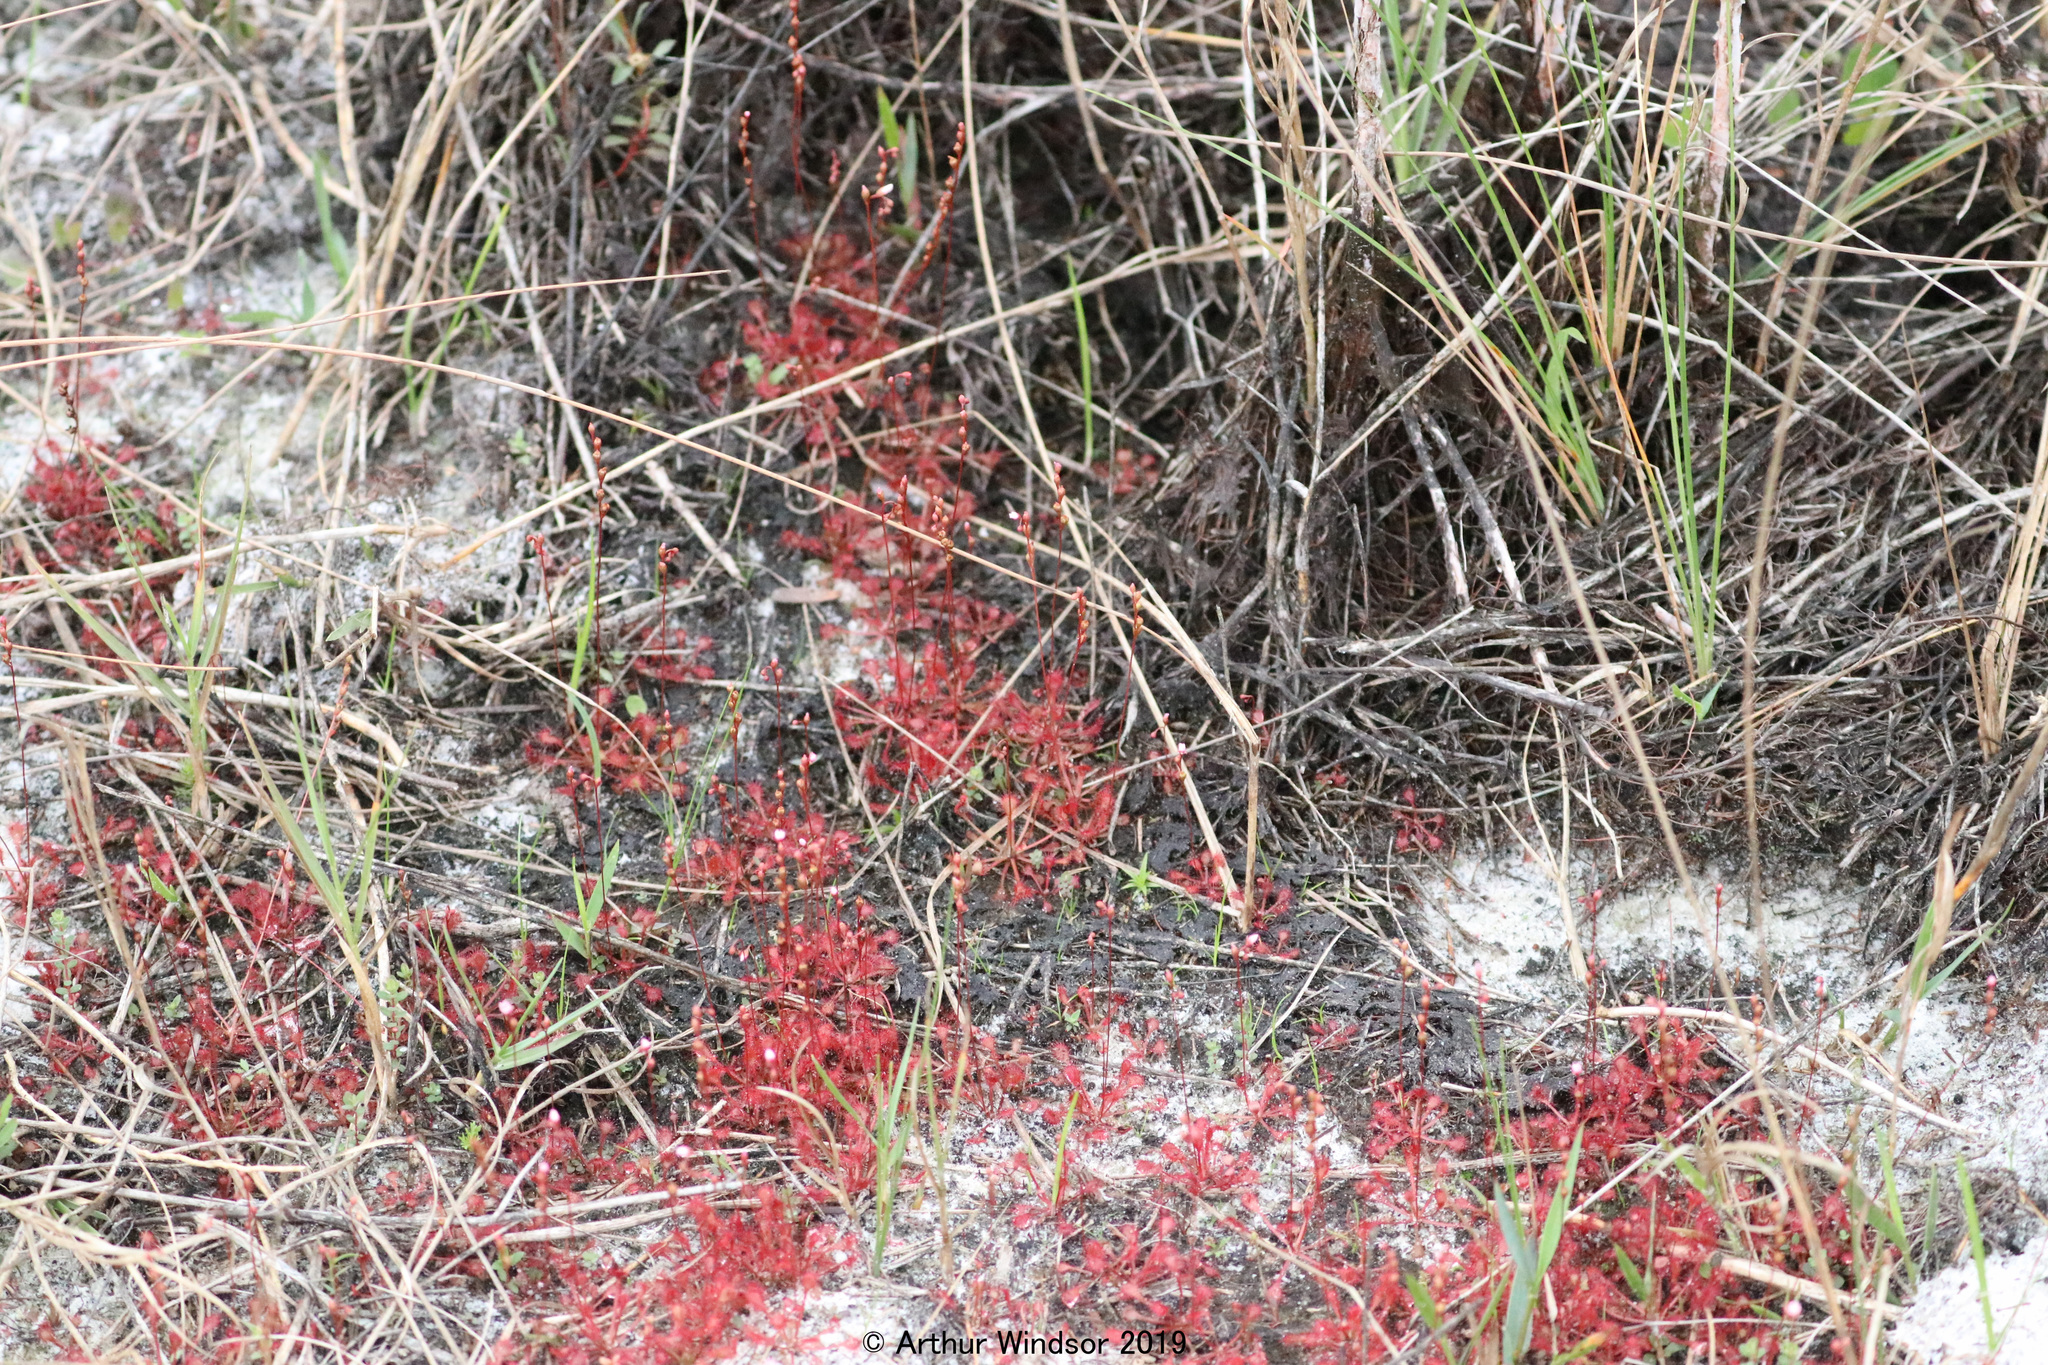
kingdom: Plantae
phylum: Tracheophyta
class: Magnoliopsida
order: Caryophyllales
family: Droseraceae
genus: Drosera
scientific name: Drosera capillaris
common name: Pink sundew
